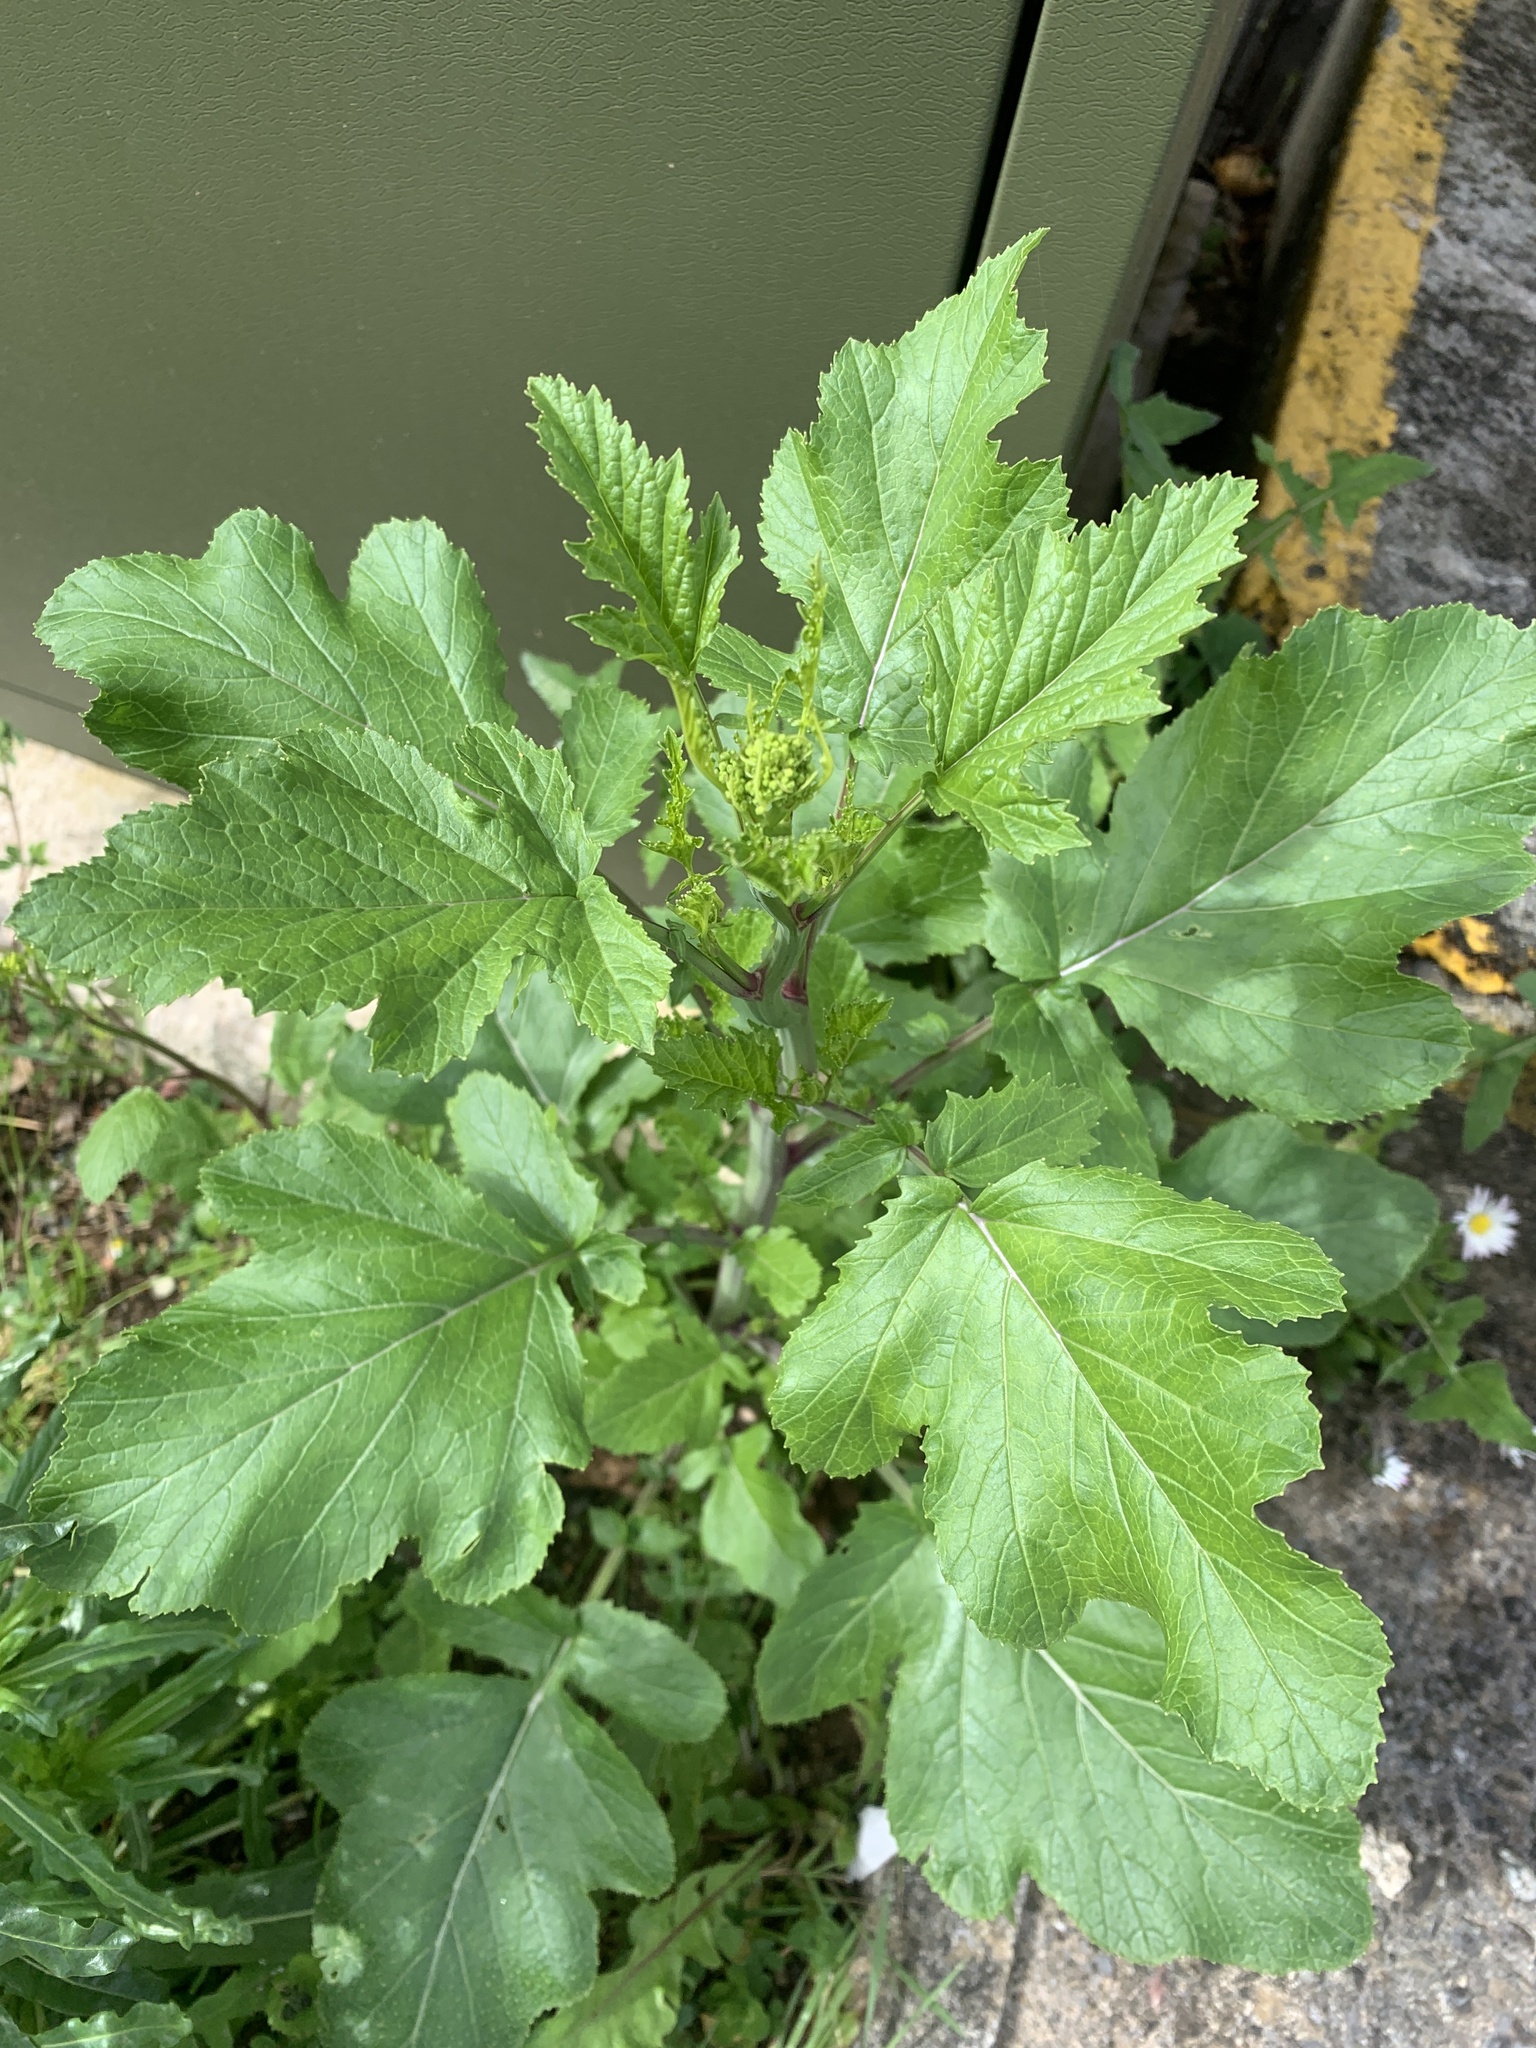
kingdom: Plantae
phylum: Tracheophyta
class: Magnoliopsida
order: Brassicales
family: Brassicaceae
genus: Brassica
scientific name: Brassica nigra
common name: Black mustard
